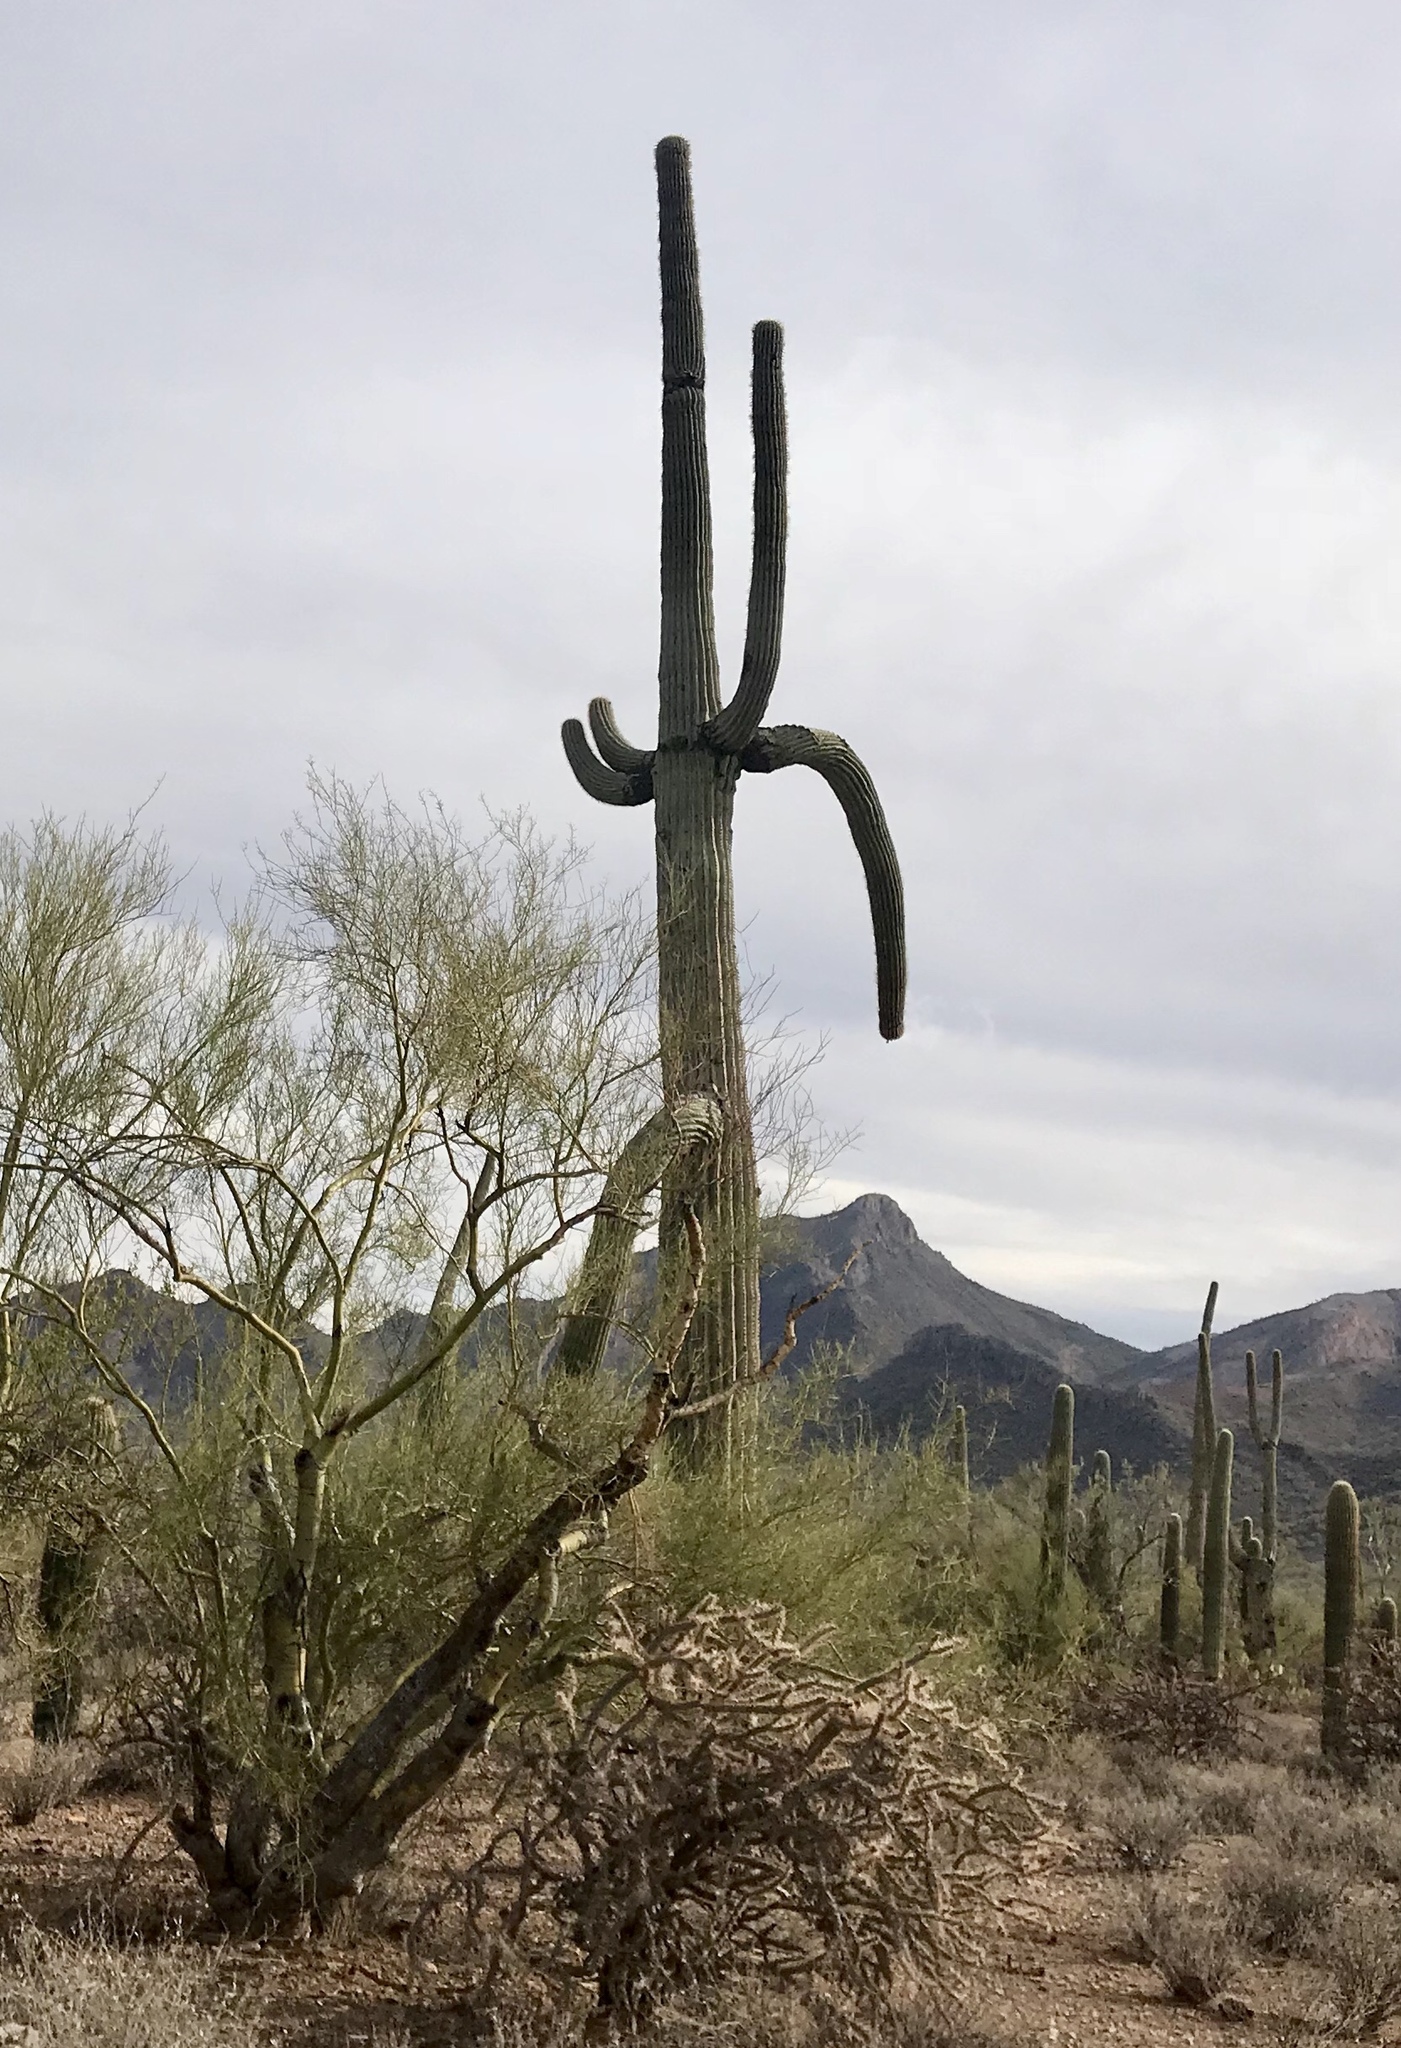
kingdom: Plantae
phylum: Tracheophyta
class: Magnoliopsida
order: Caryophyllales
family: Cactaceae
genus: Carnegiea
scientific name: Carnegiea gigantea
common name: Saguaro
